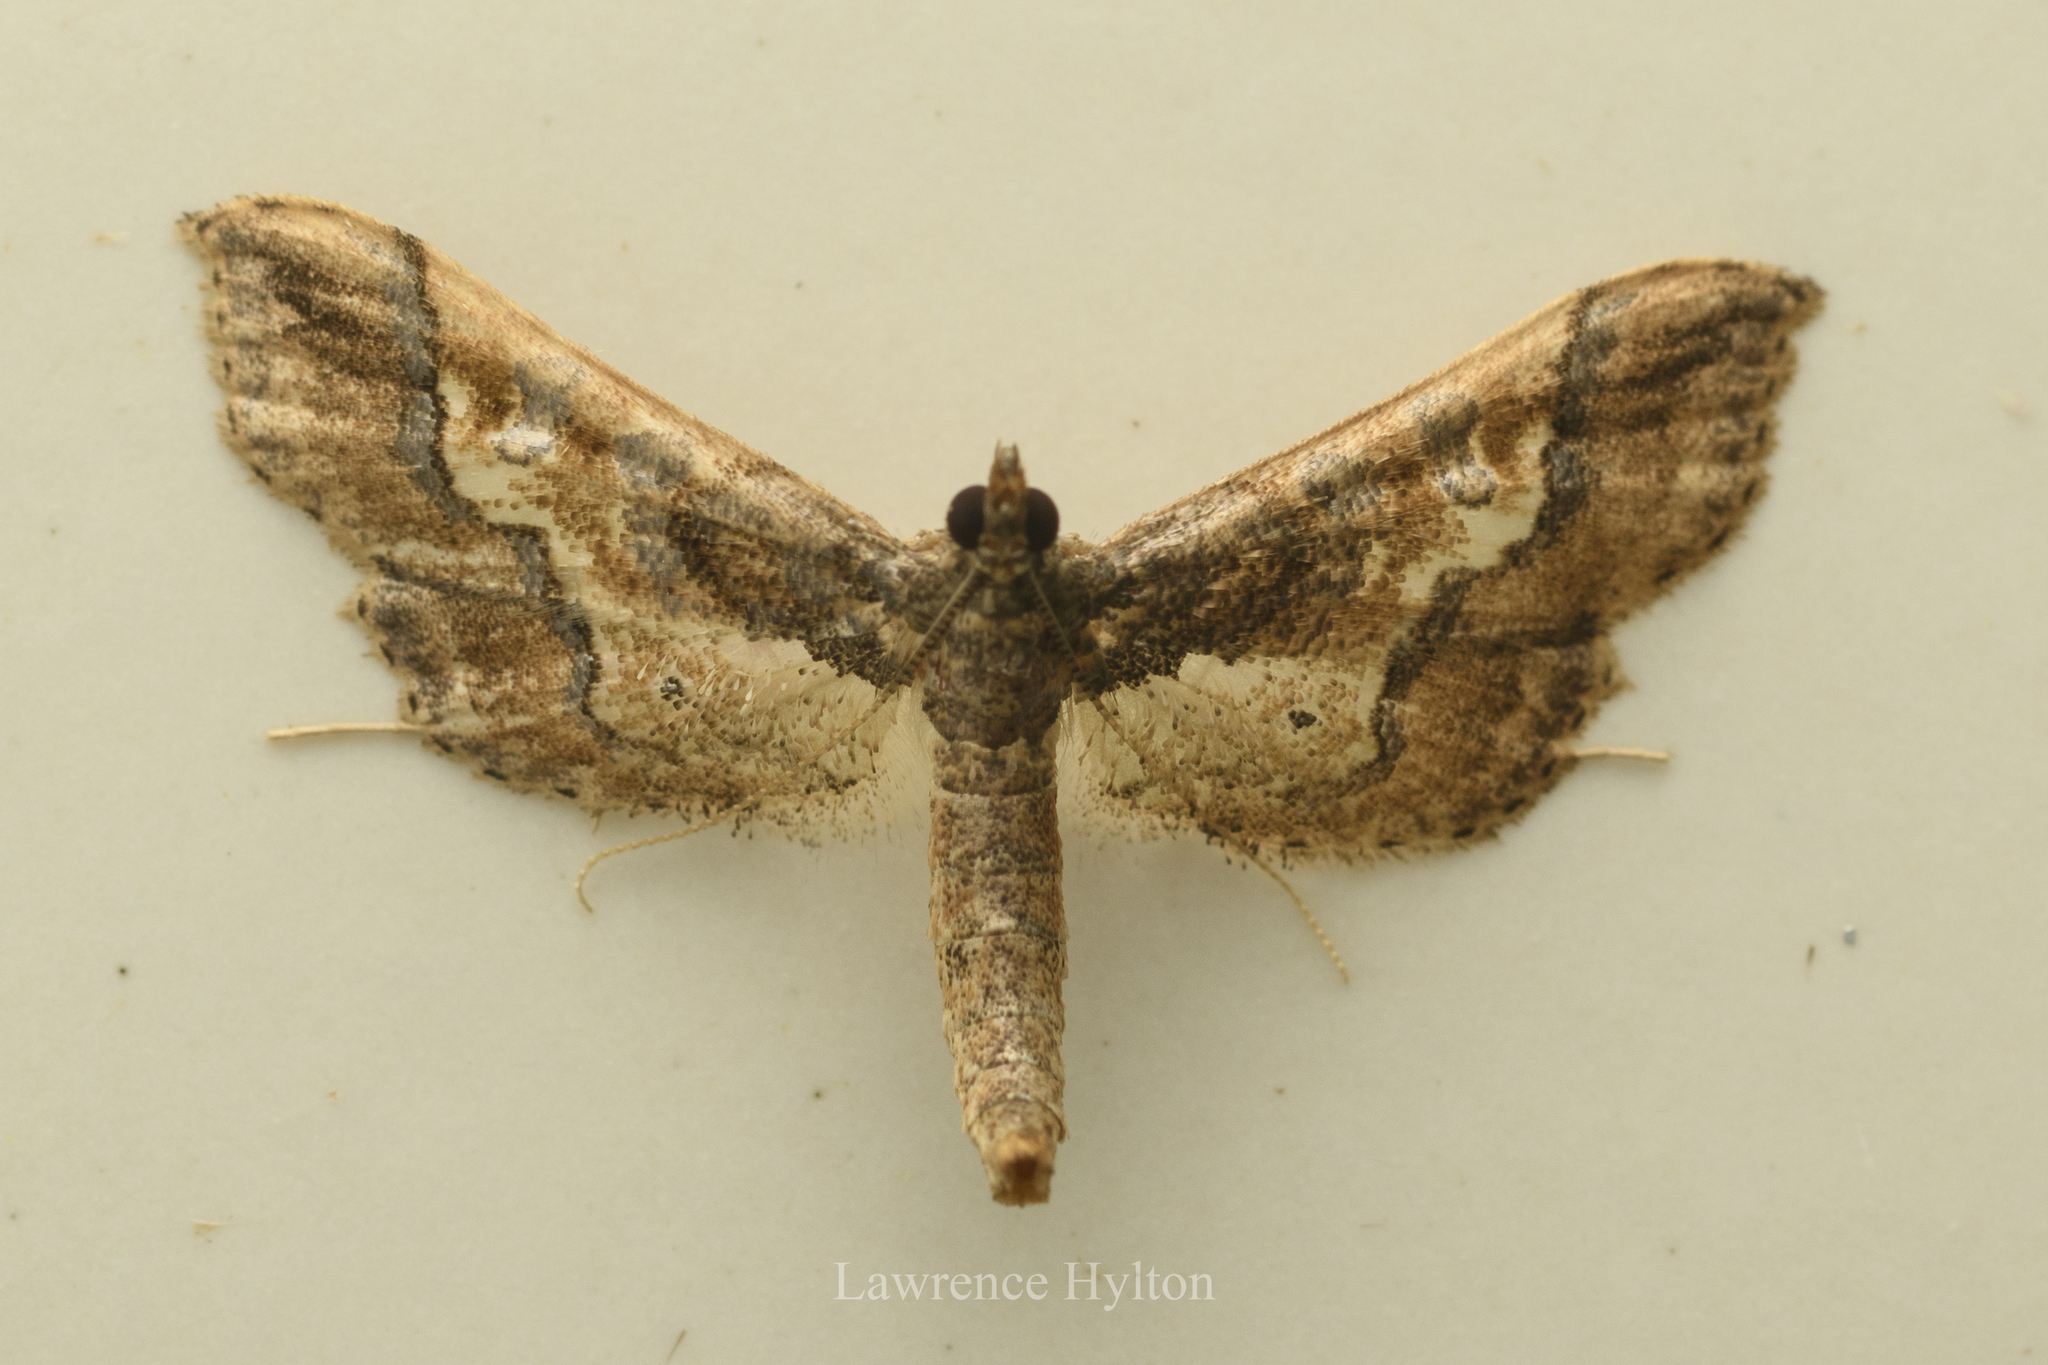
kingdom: Animalia
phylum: Arthropoda
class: Insecta
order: Lepidoptera
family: Crambidae
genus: Hydriris
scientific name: Hydriris ornatalis
